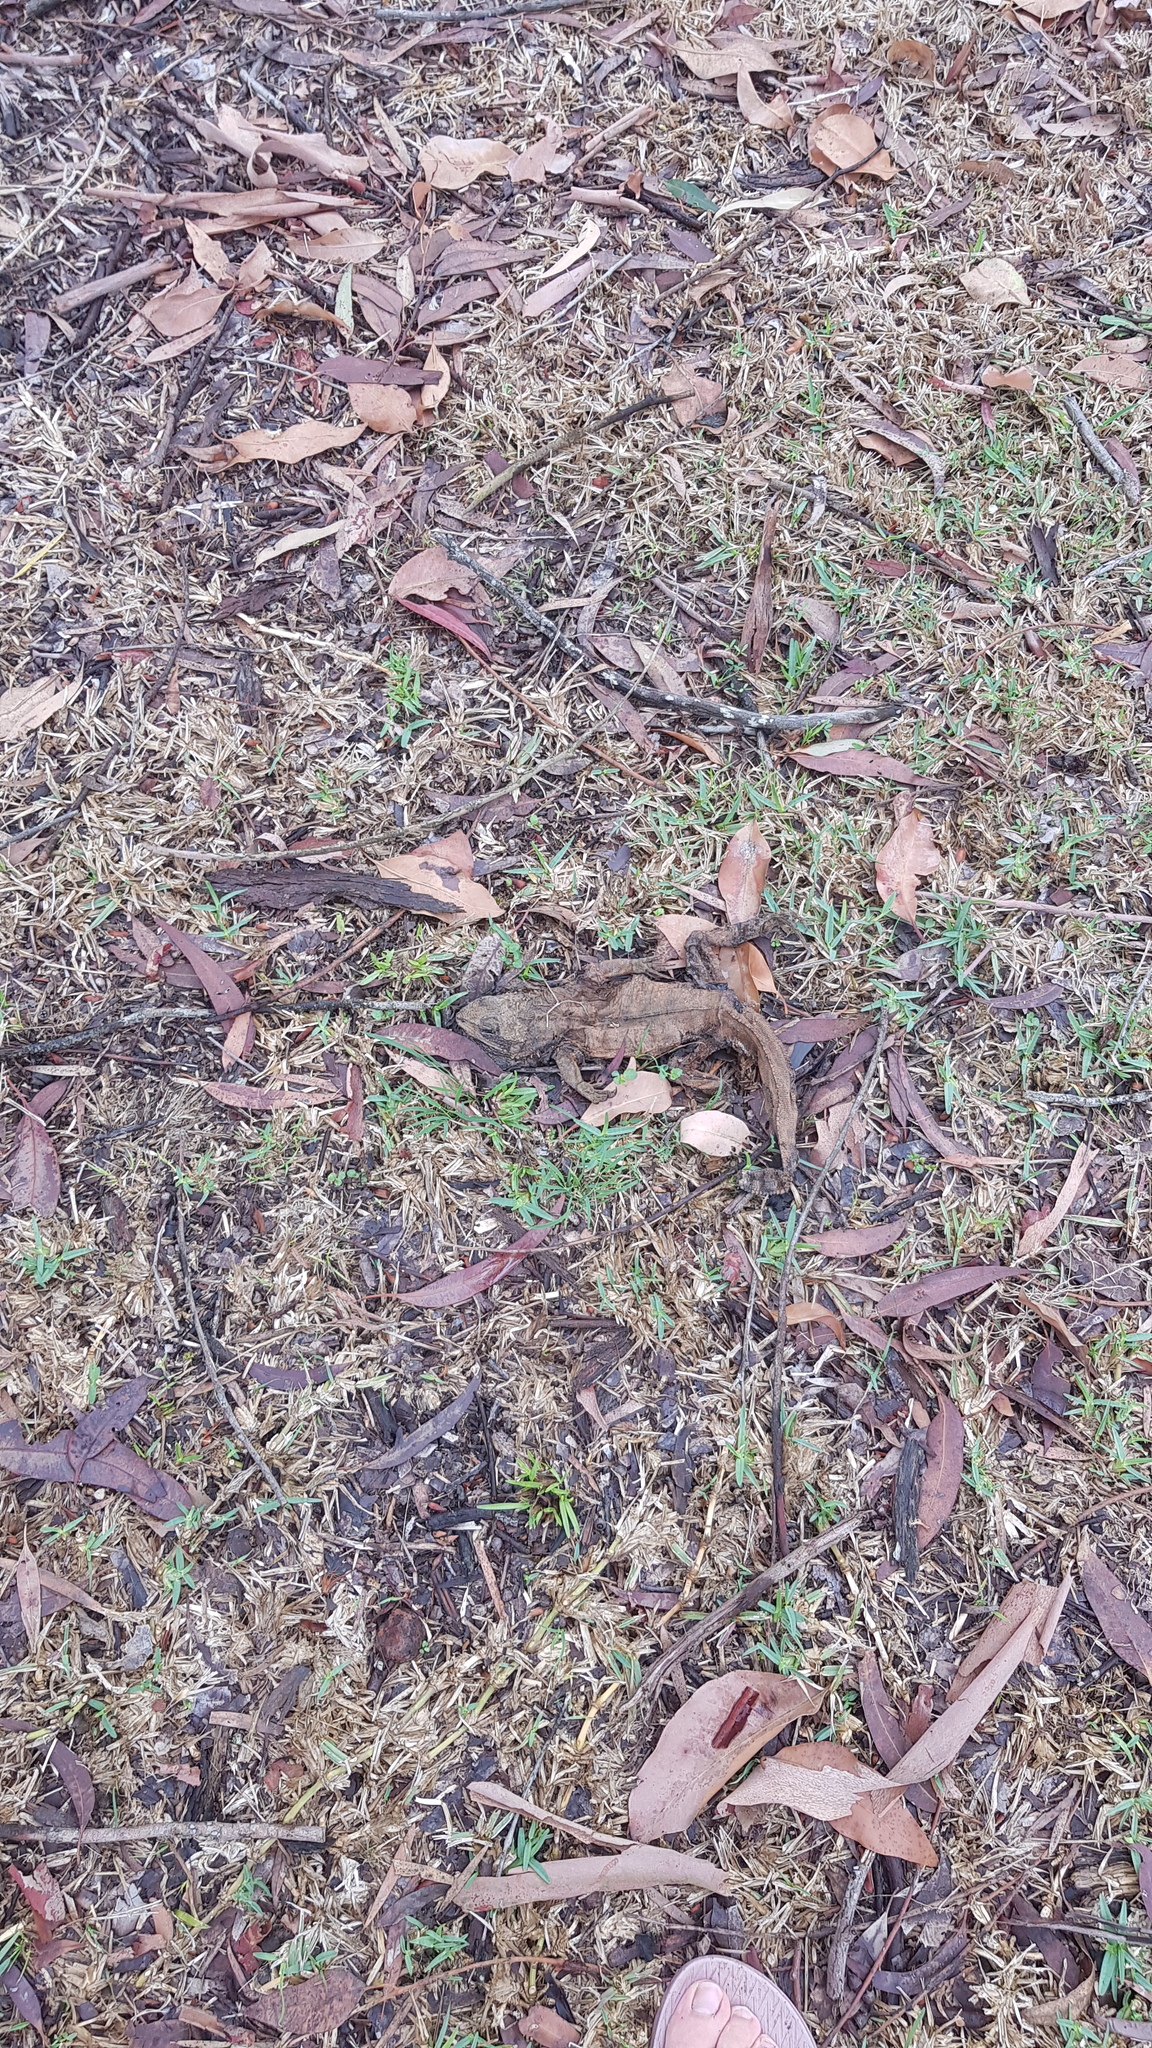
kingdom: Animalia
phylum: Chordata
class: Squamata
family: Agamidae
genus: Intellagama
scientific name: Intellagama lesueurii
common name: Eastern water dragon
